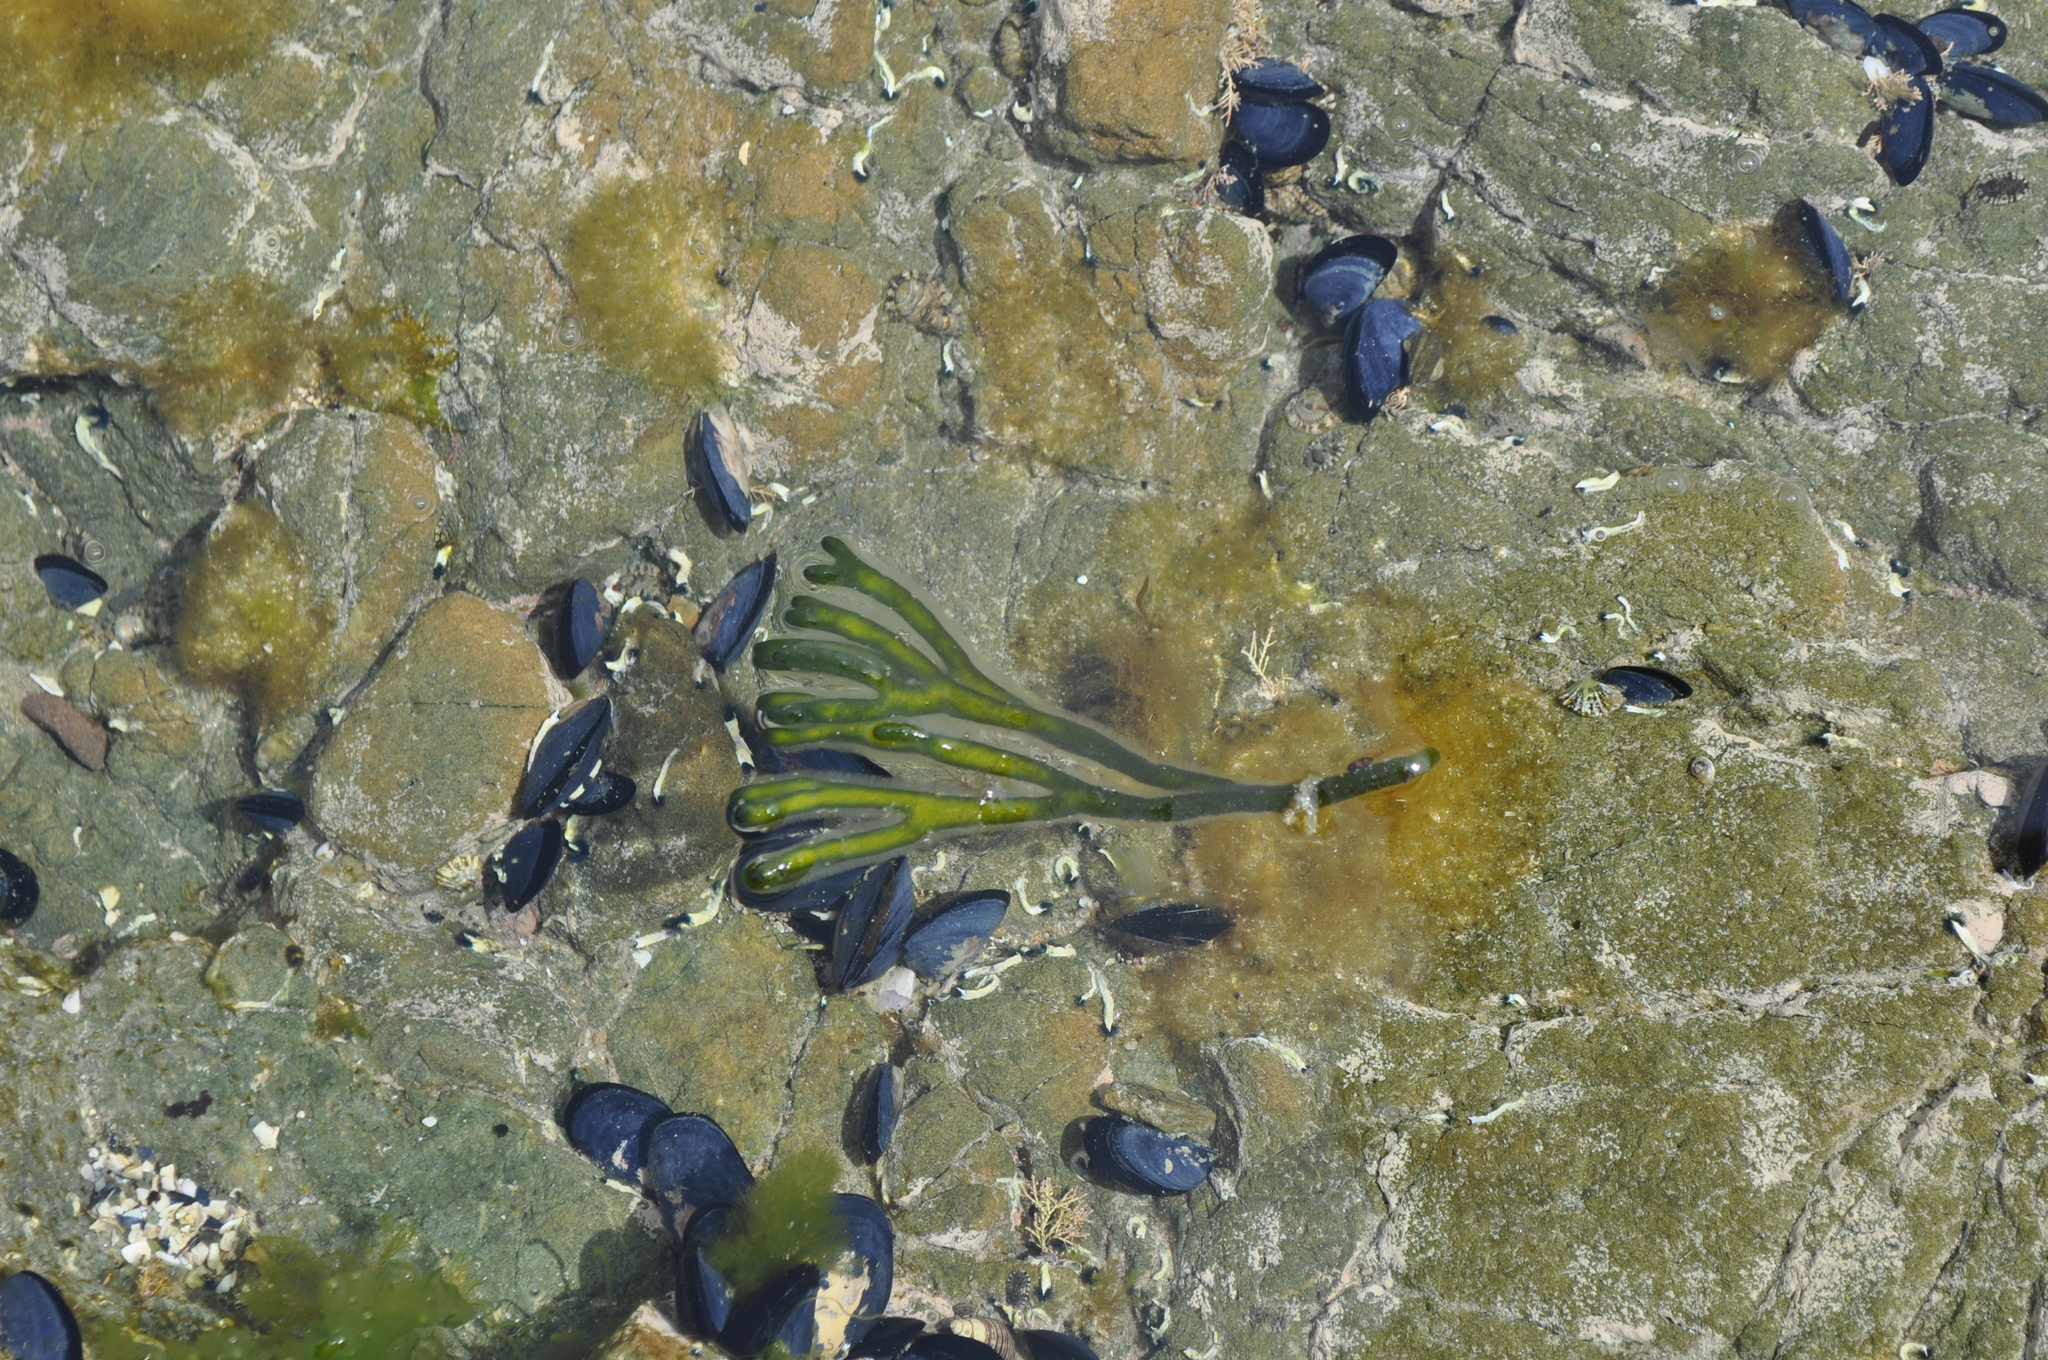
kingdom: Plantae
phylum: Chlorophyta
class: Ulvophyceae
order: Bryopsidales
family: Codiaceae
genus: Codium
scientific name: Codium fragile
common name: Dead man's fingers
